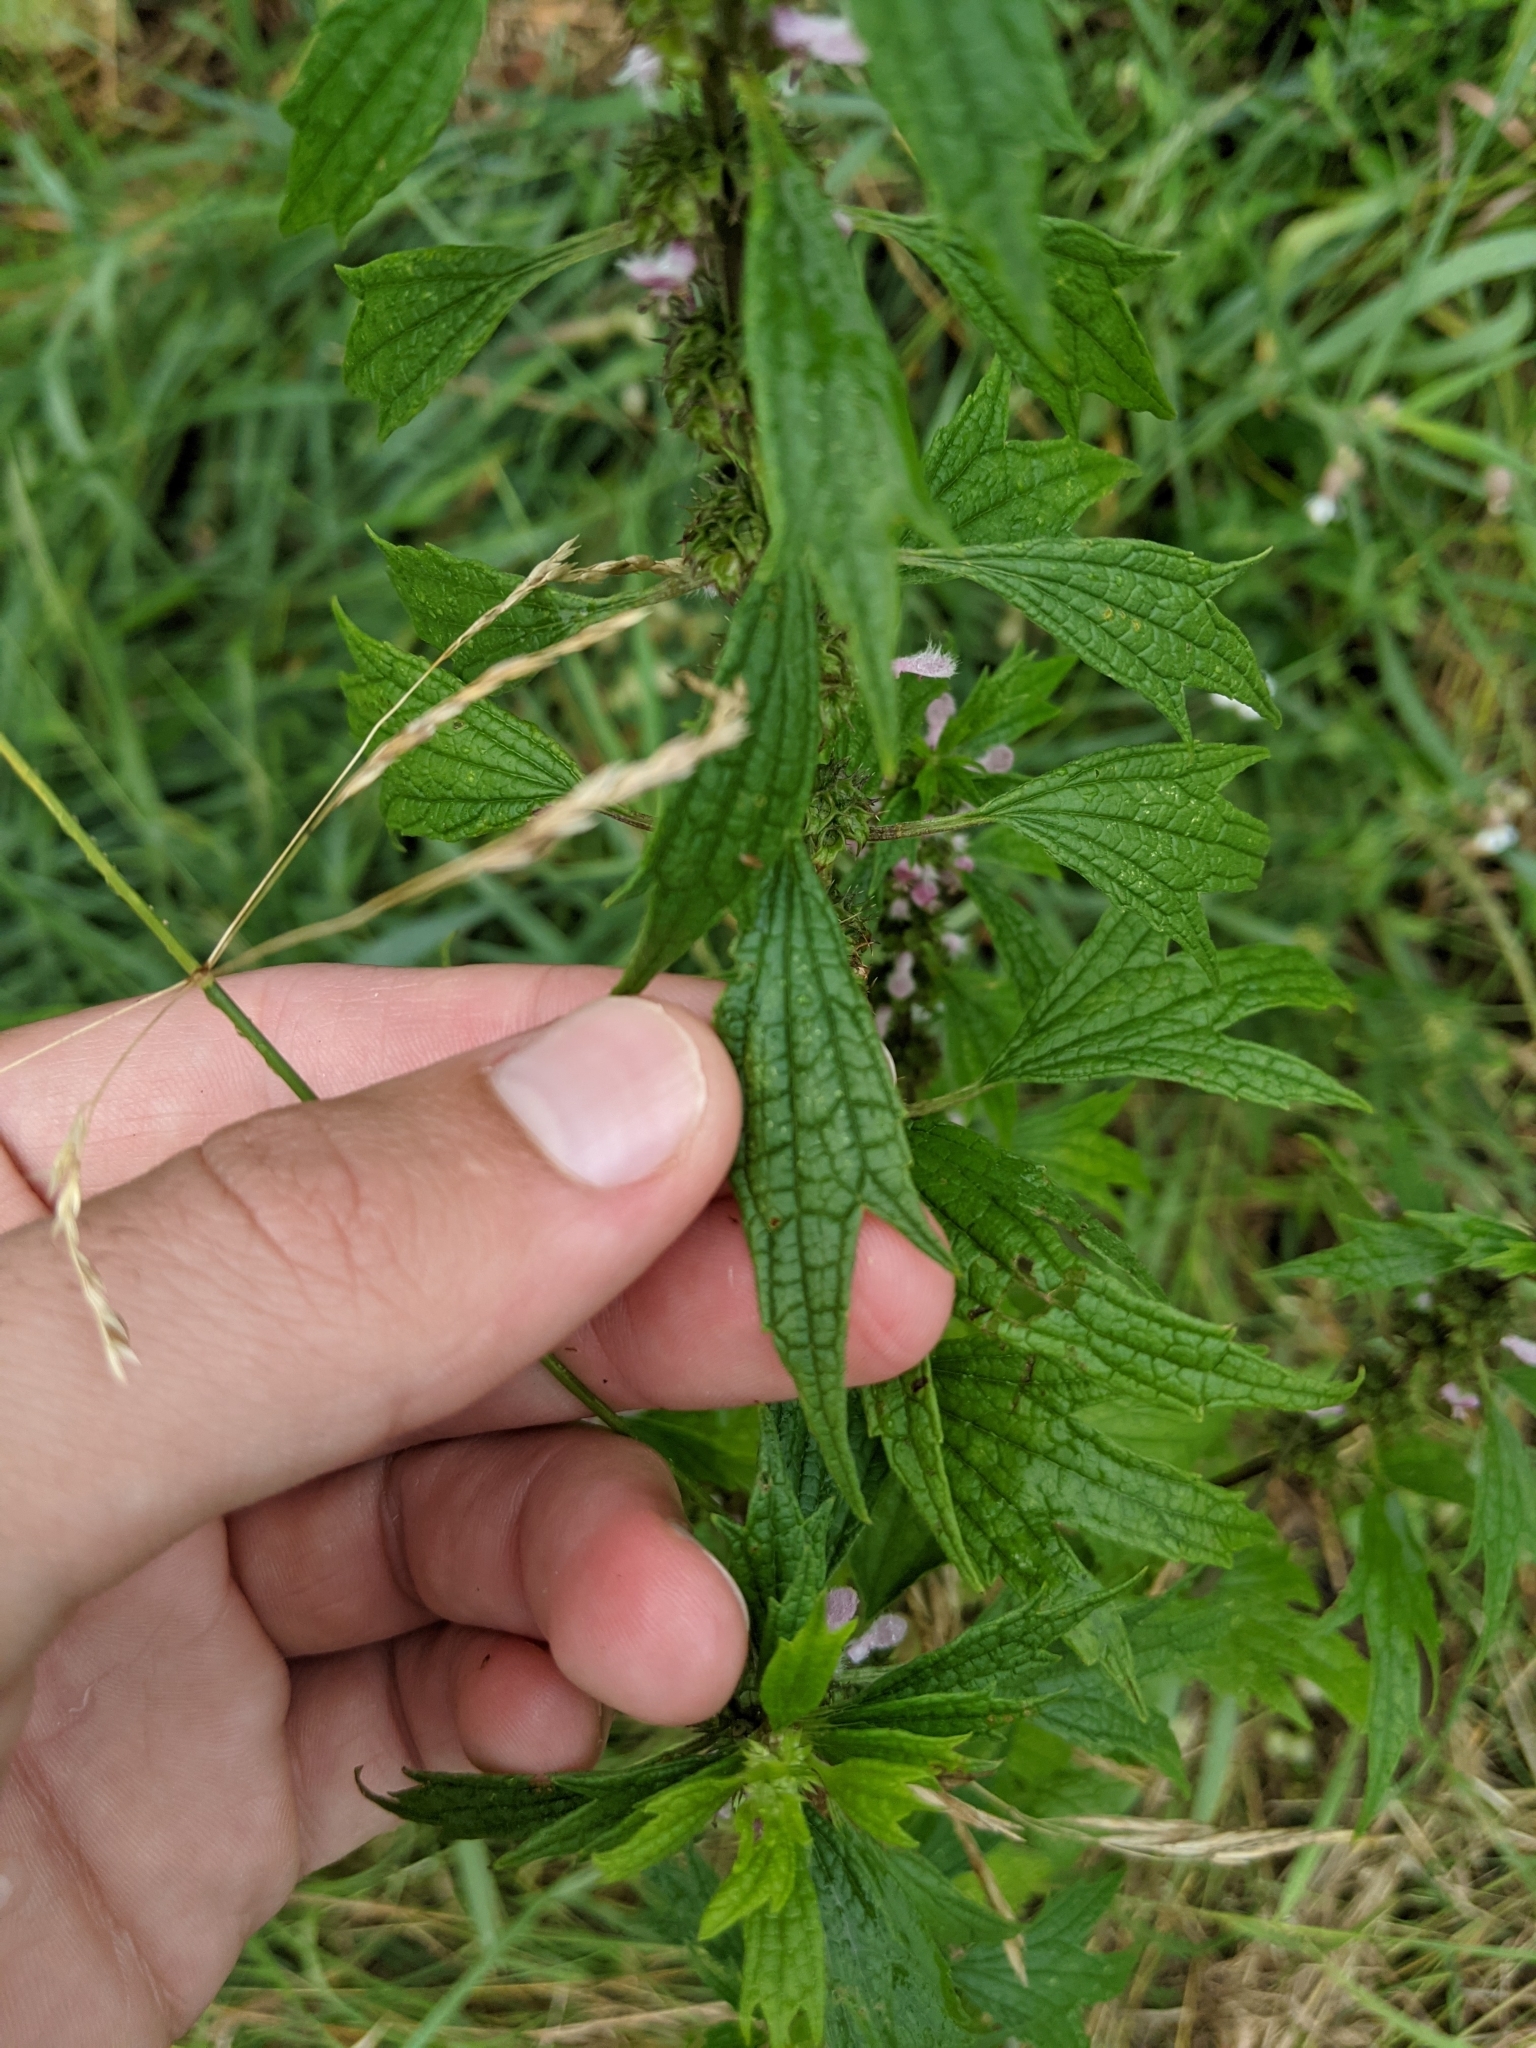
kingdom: Plantae
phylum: Tracheophyta
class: Magnoliopsida
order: Lamiales
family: Lamiaceae
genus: Leonurus
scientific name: Leonurus cardiaca
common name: Motherwort
